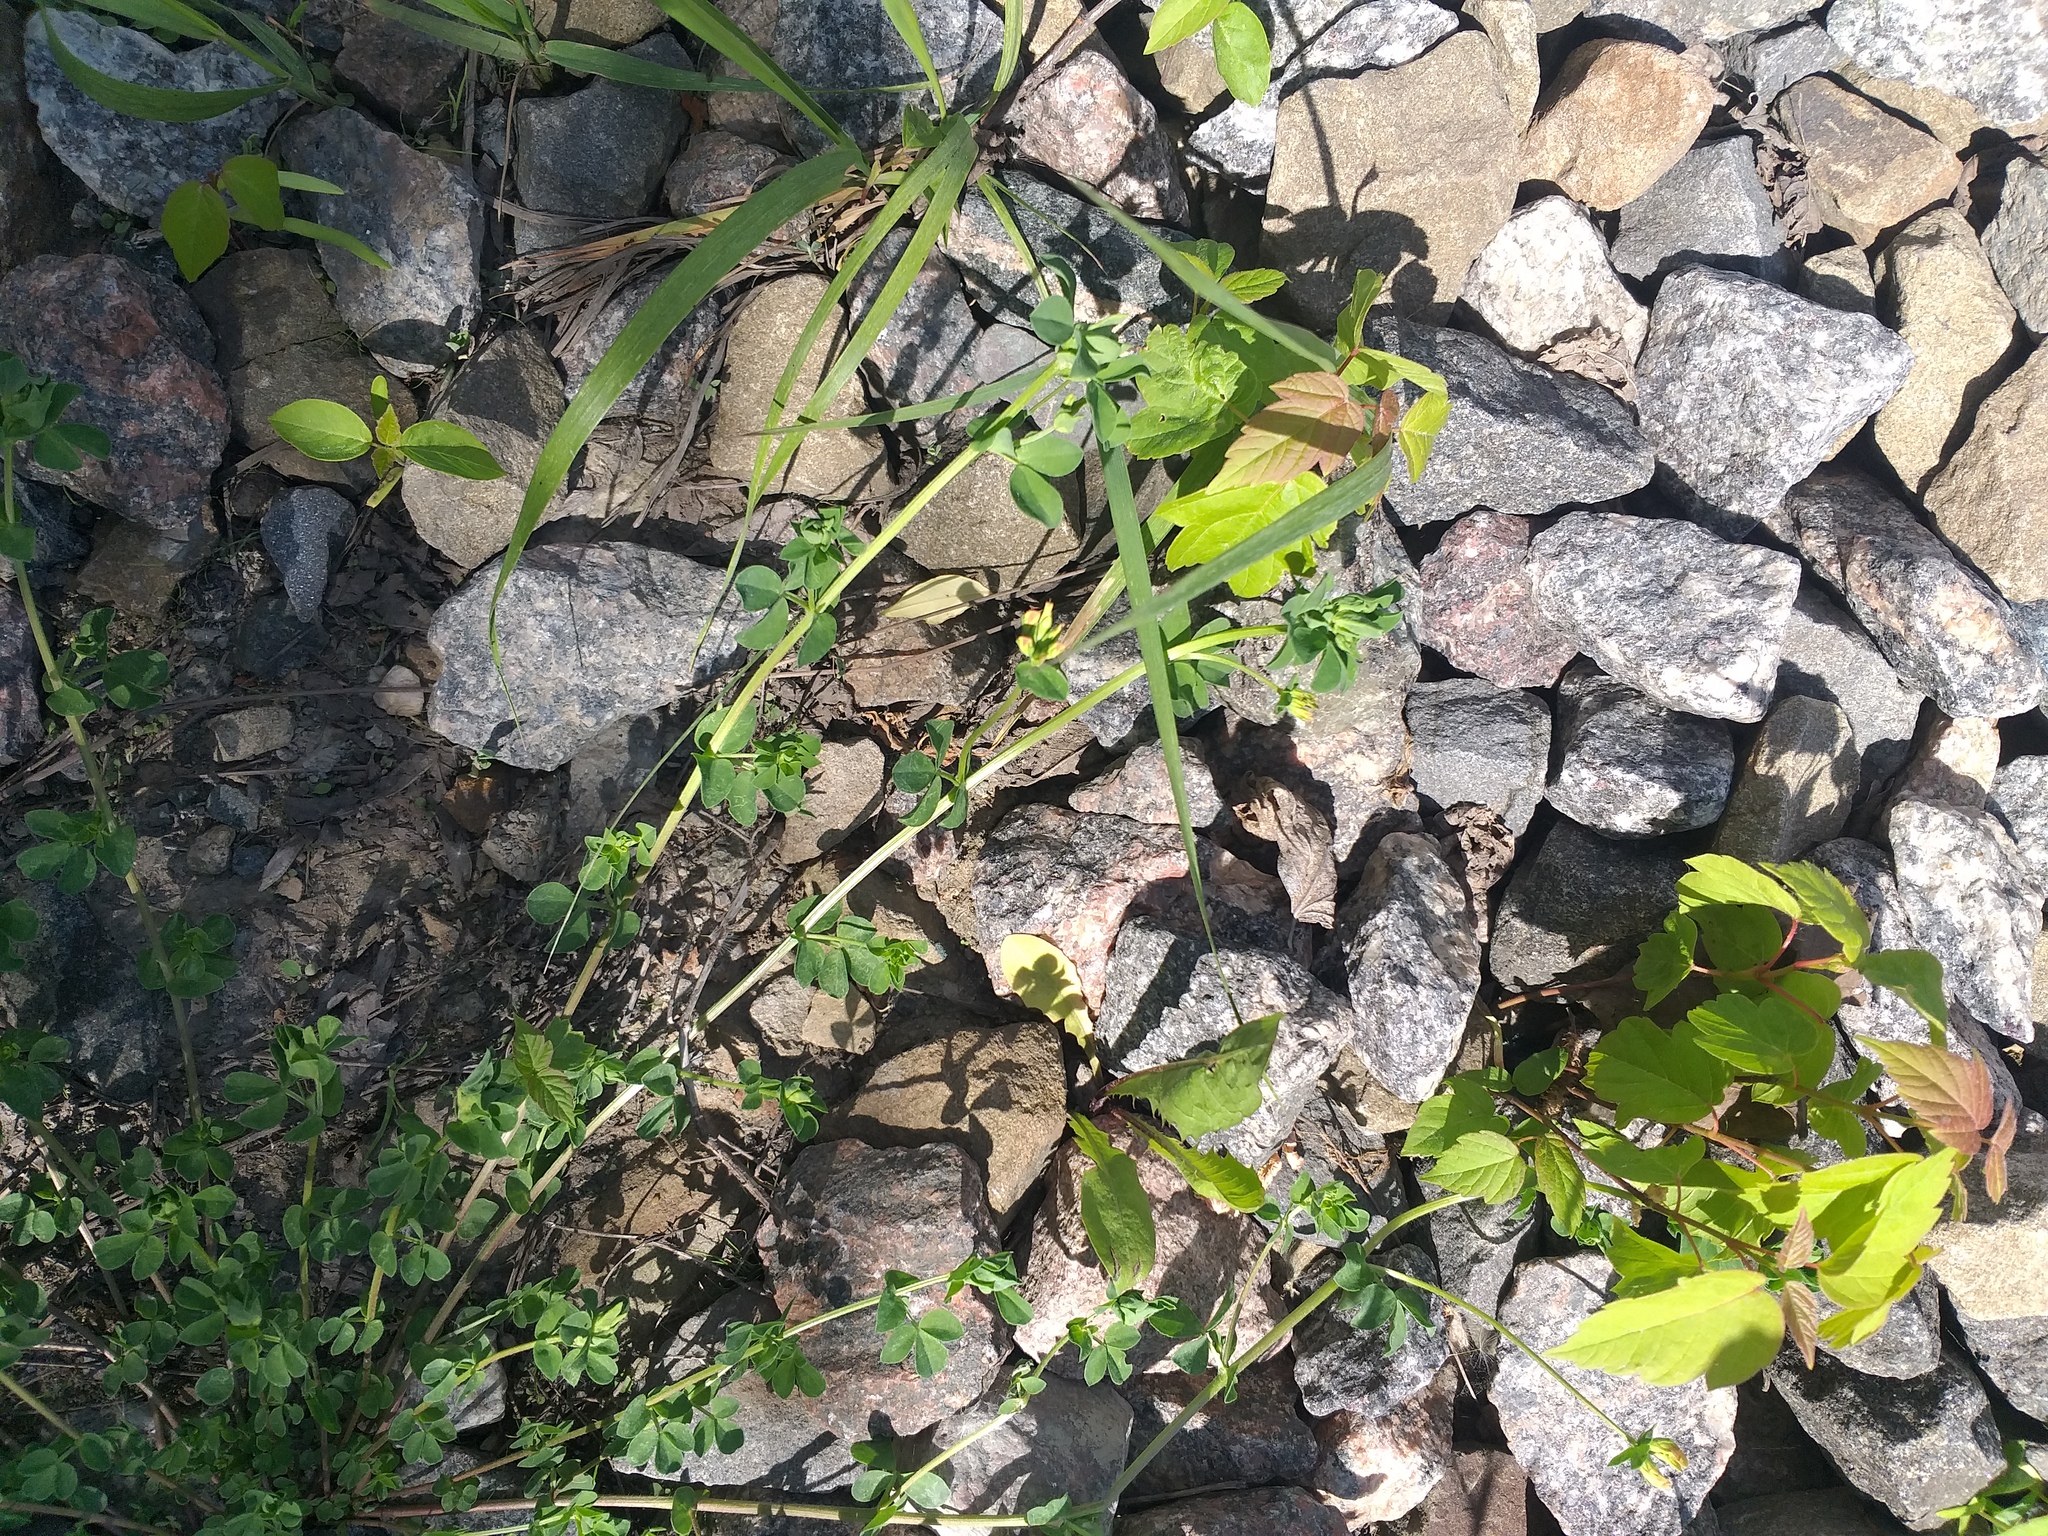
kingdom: Plantae
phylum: Tracheophyta
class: Magnoliopsida
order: Fabales
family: Fabaceae
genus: Lotus
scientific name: Lotus corniculatus
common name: Common bird's-foot-trefoil
